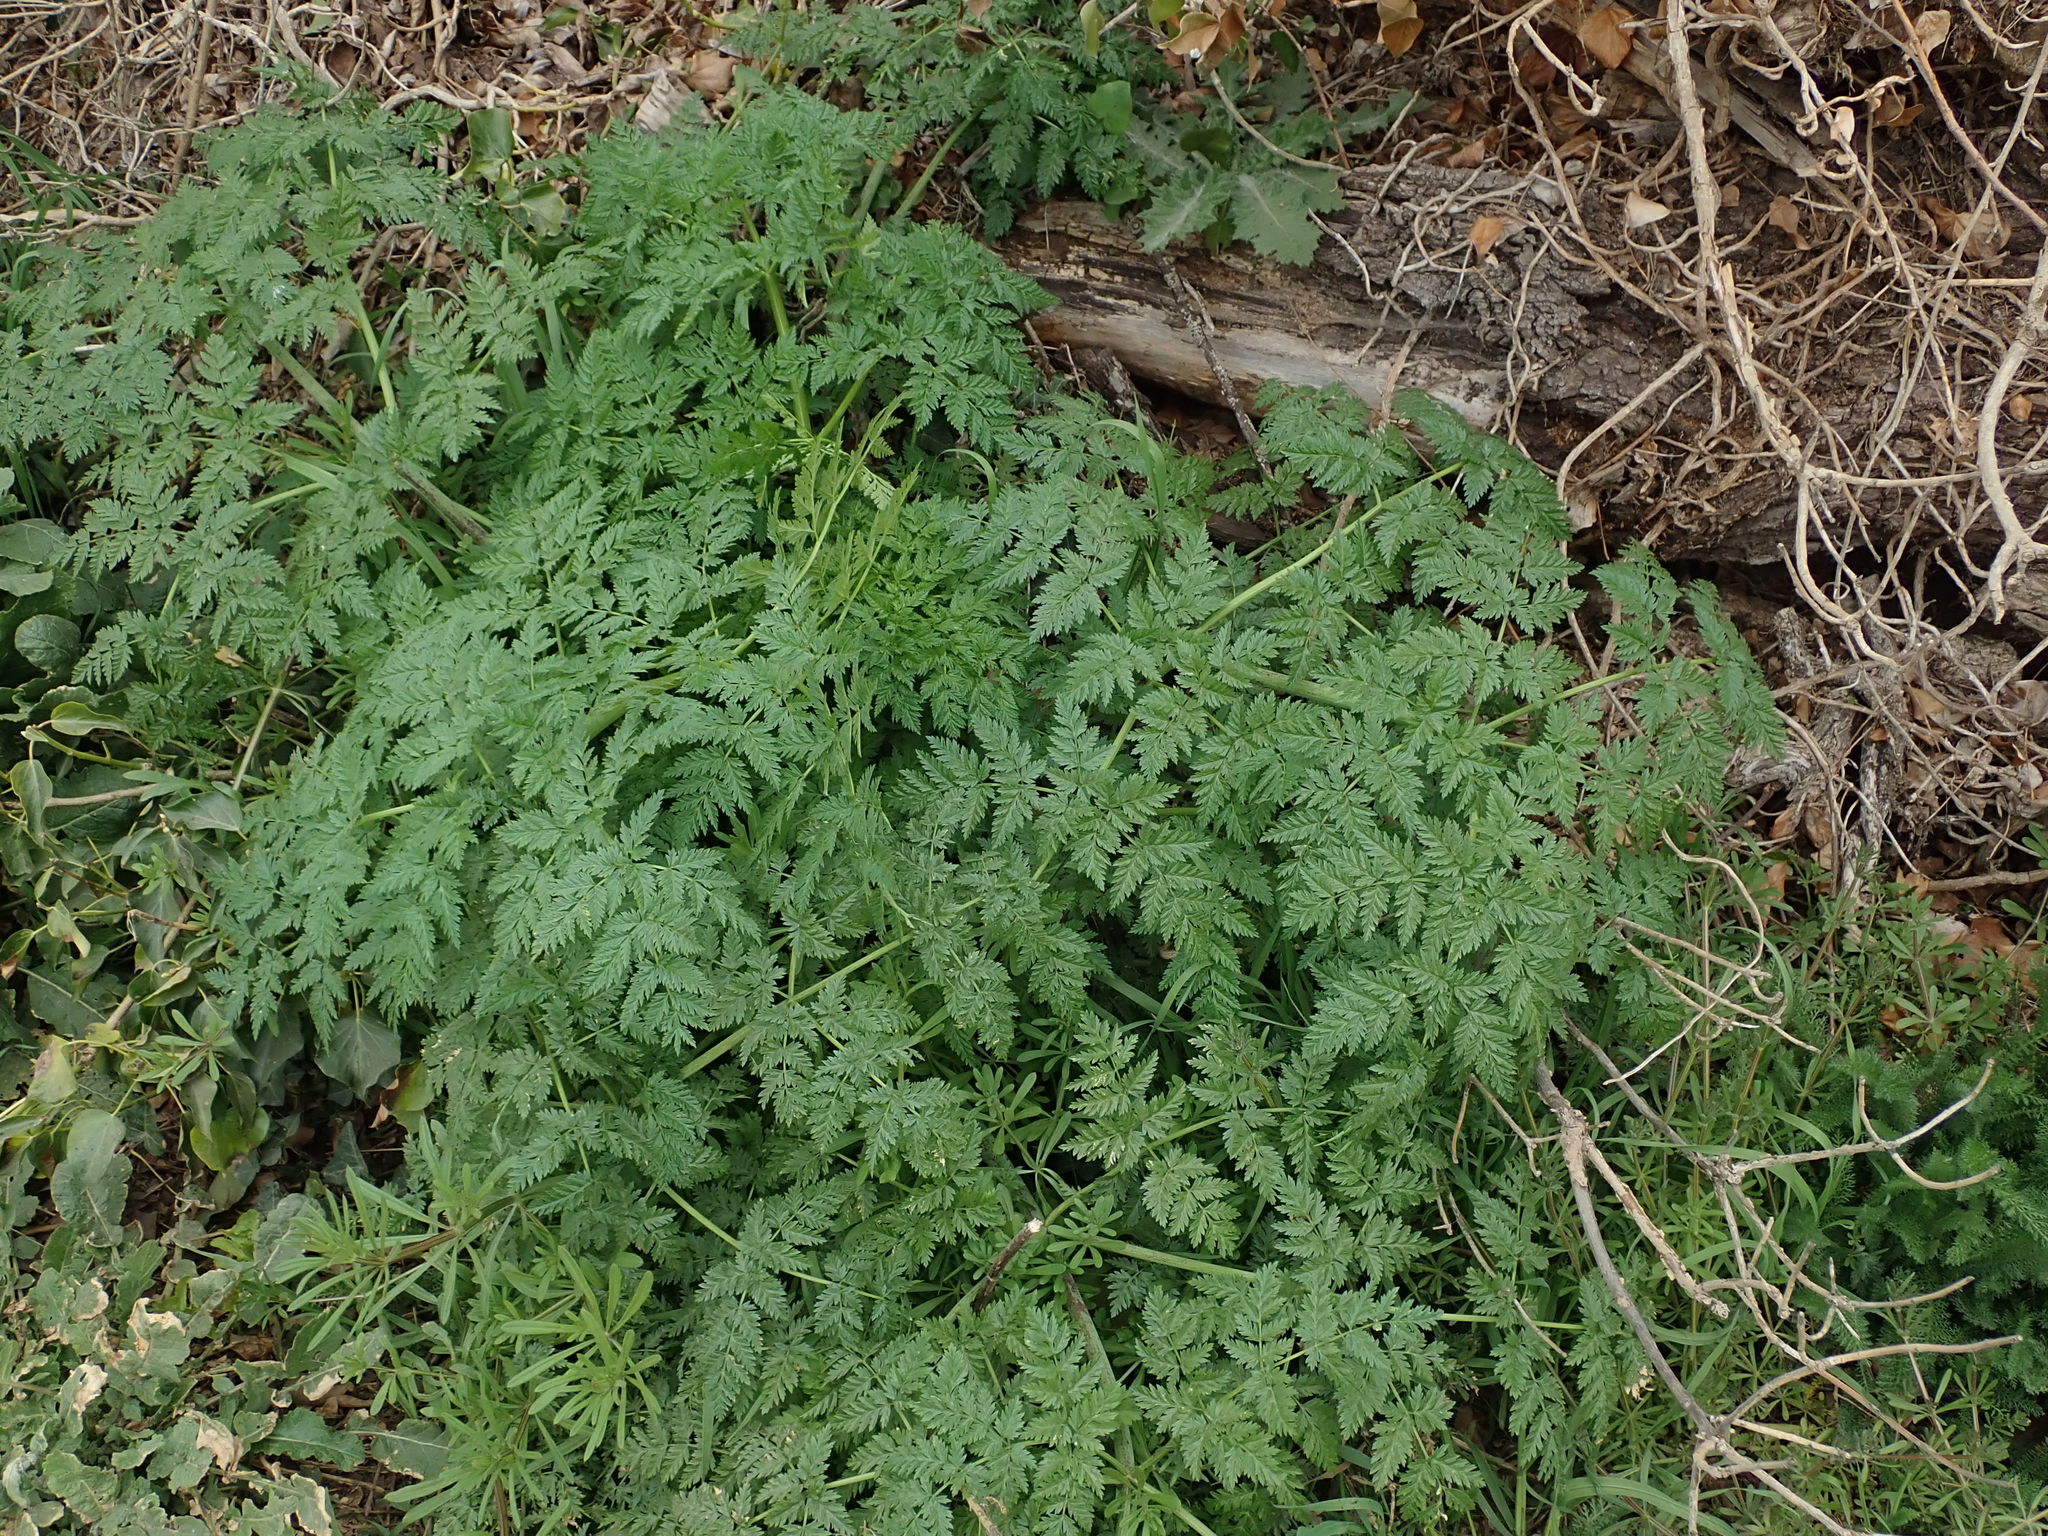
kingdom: Plantae
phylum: Tracheophyta
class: Magnoliopsida
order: Apiales
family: Apiaceae
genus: Conium
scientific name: Conium maculatum
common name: Hemlock
